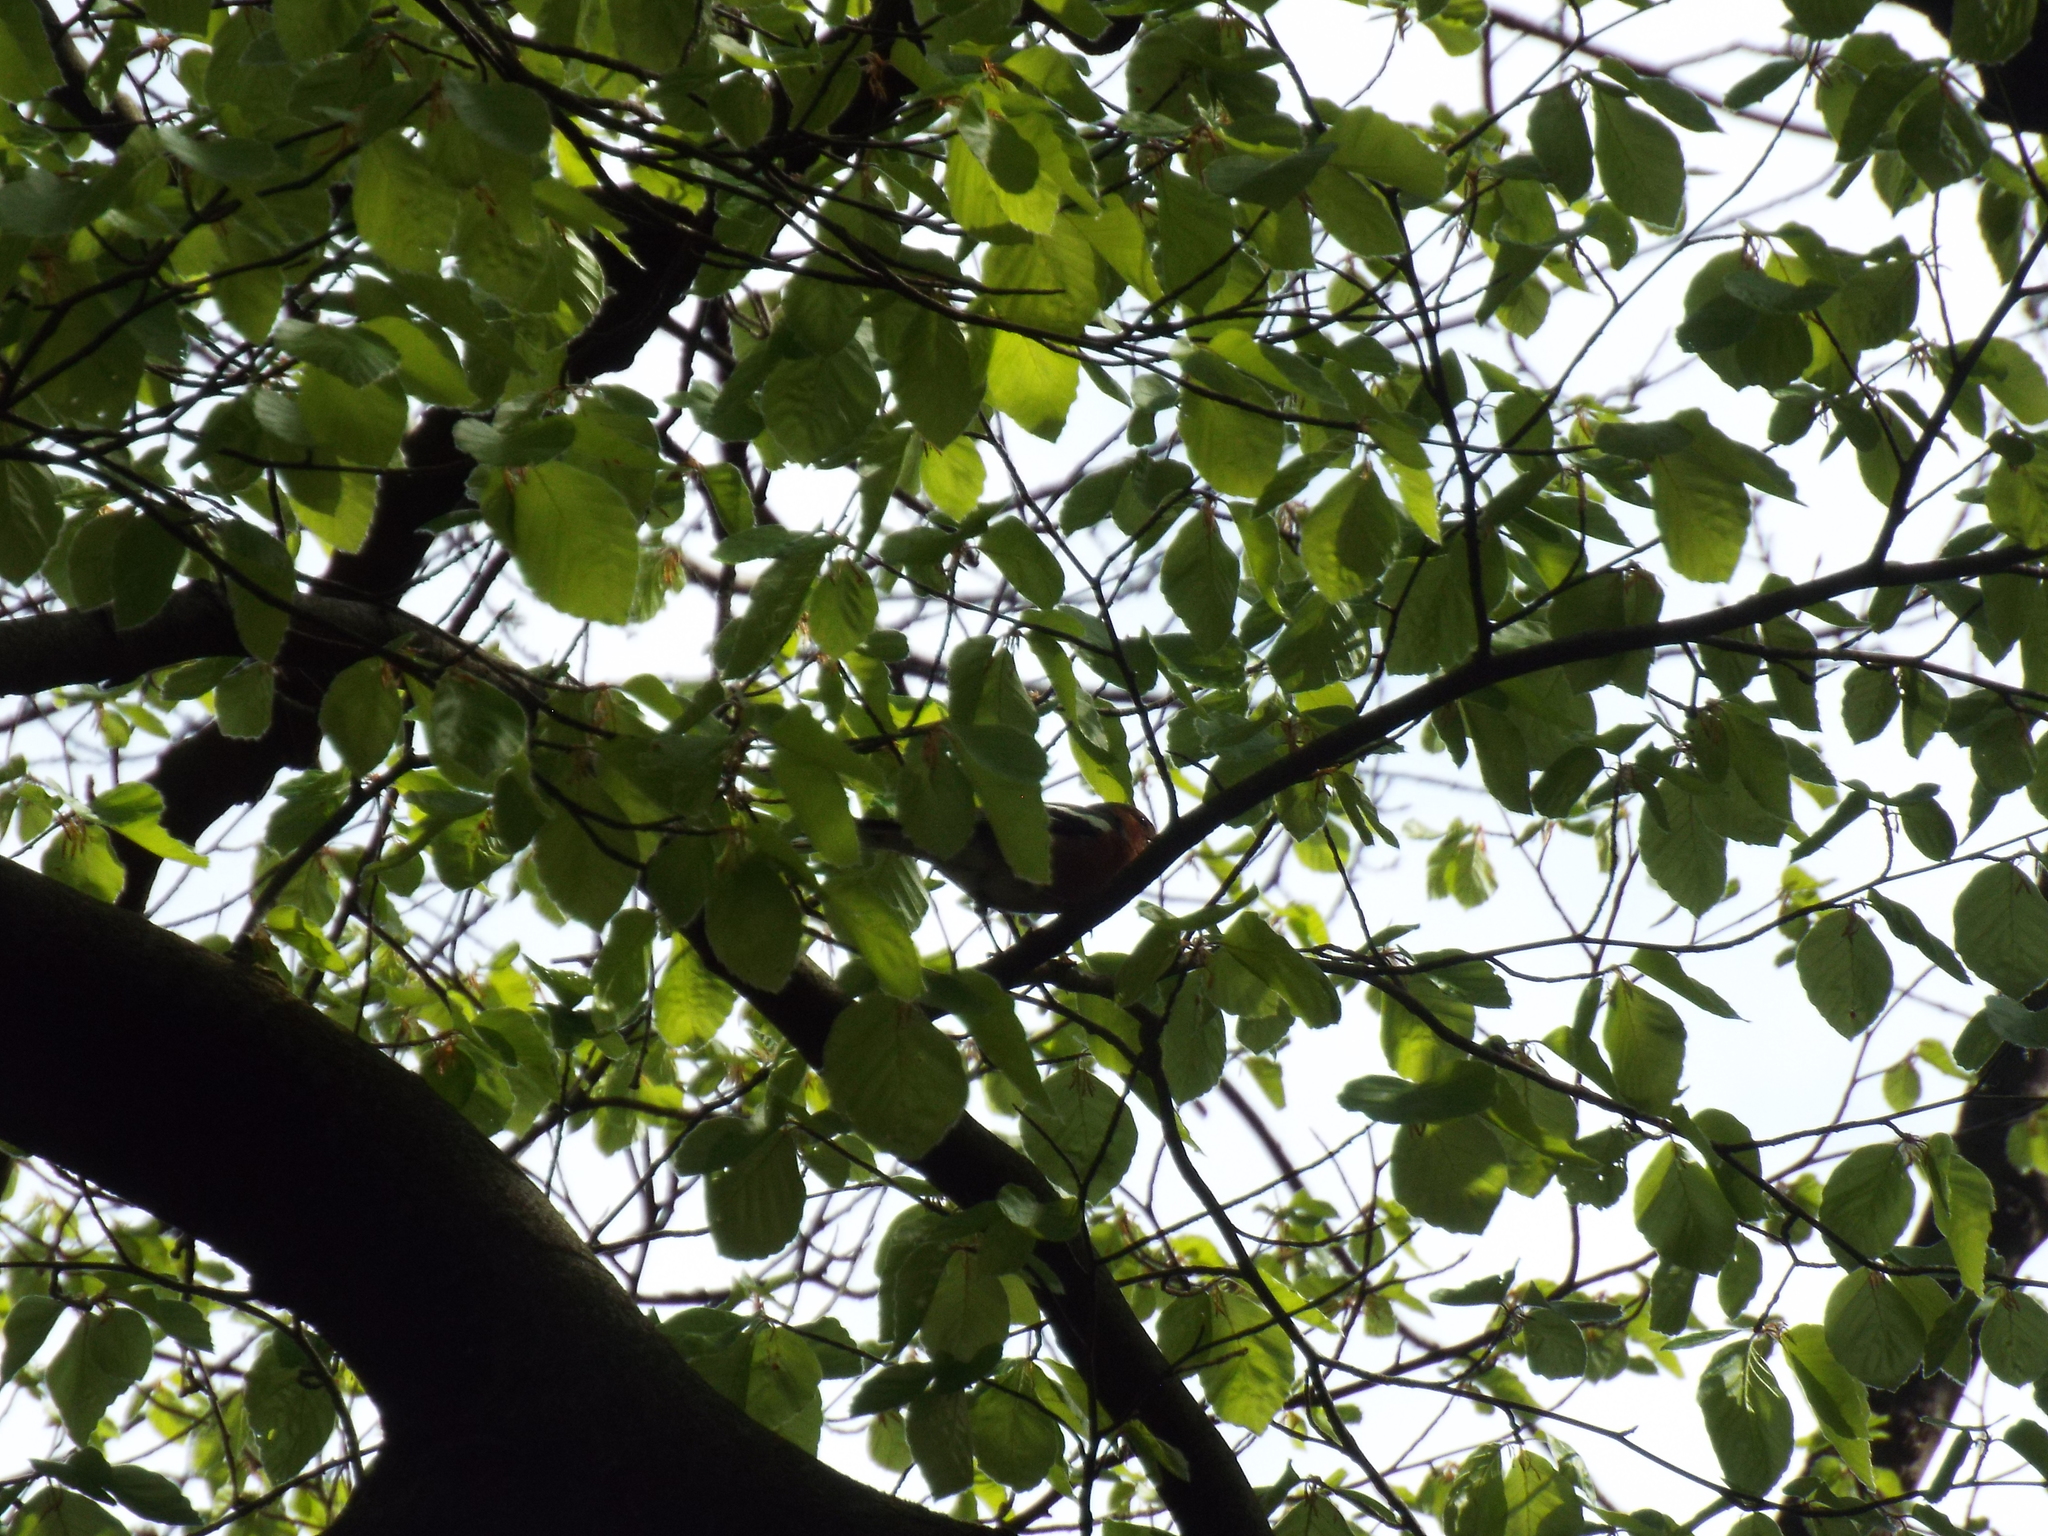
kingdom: Animalia
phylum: Chordata
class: Aves
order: Passeriformes
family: Fringillidae
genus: Fringilla
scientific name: Fringilla coelebs
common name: Common chaffinch
